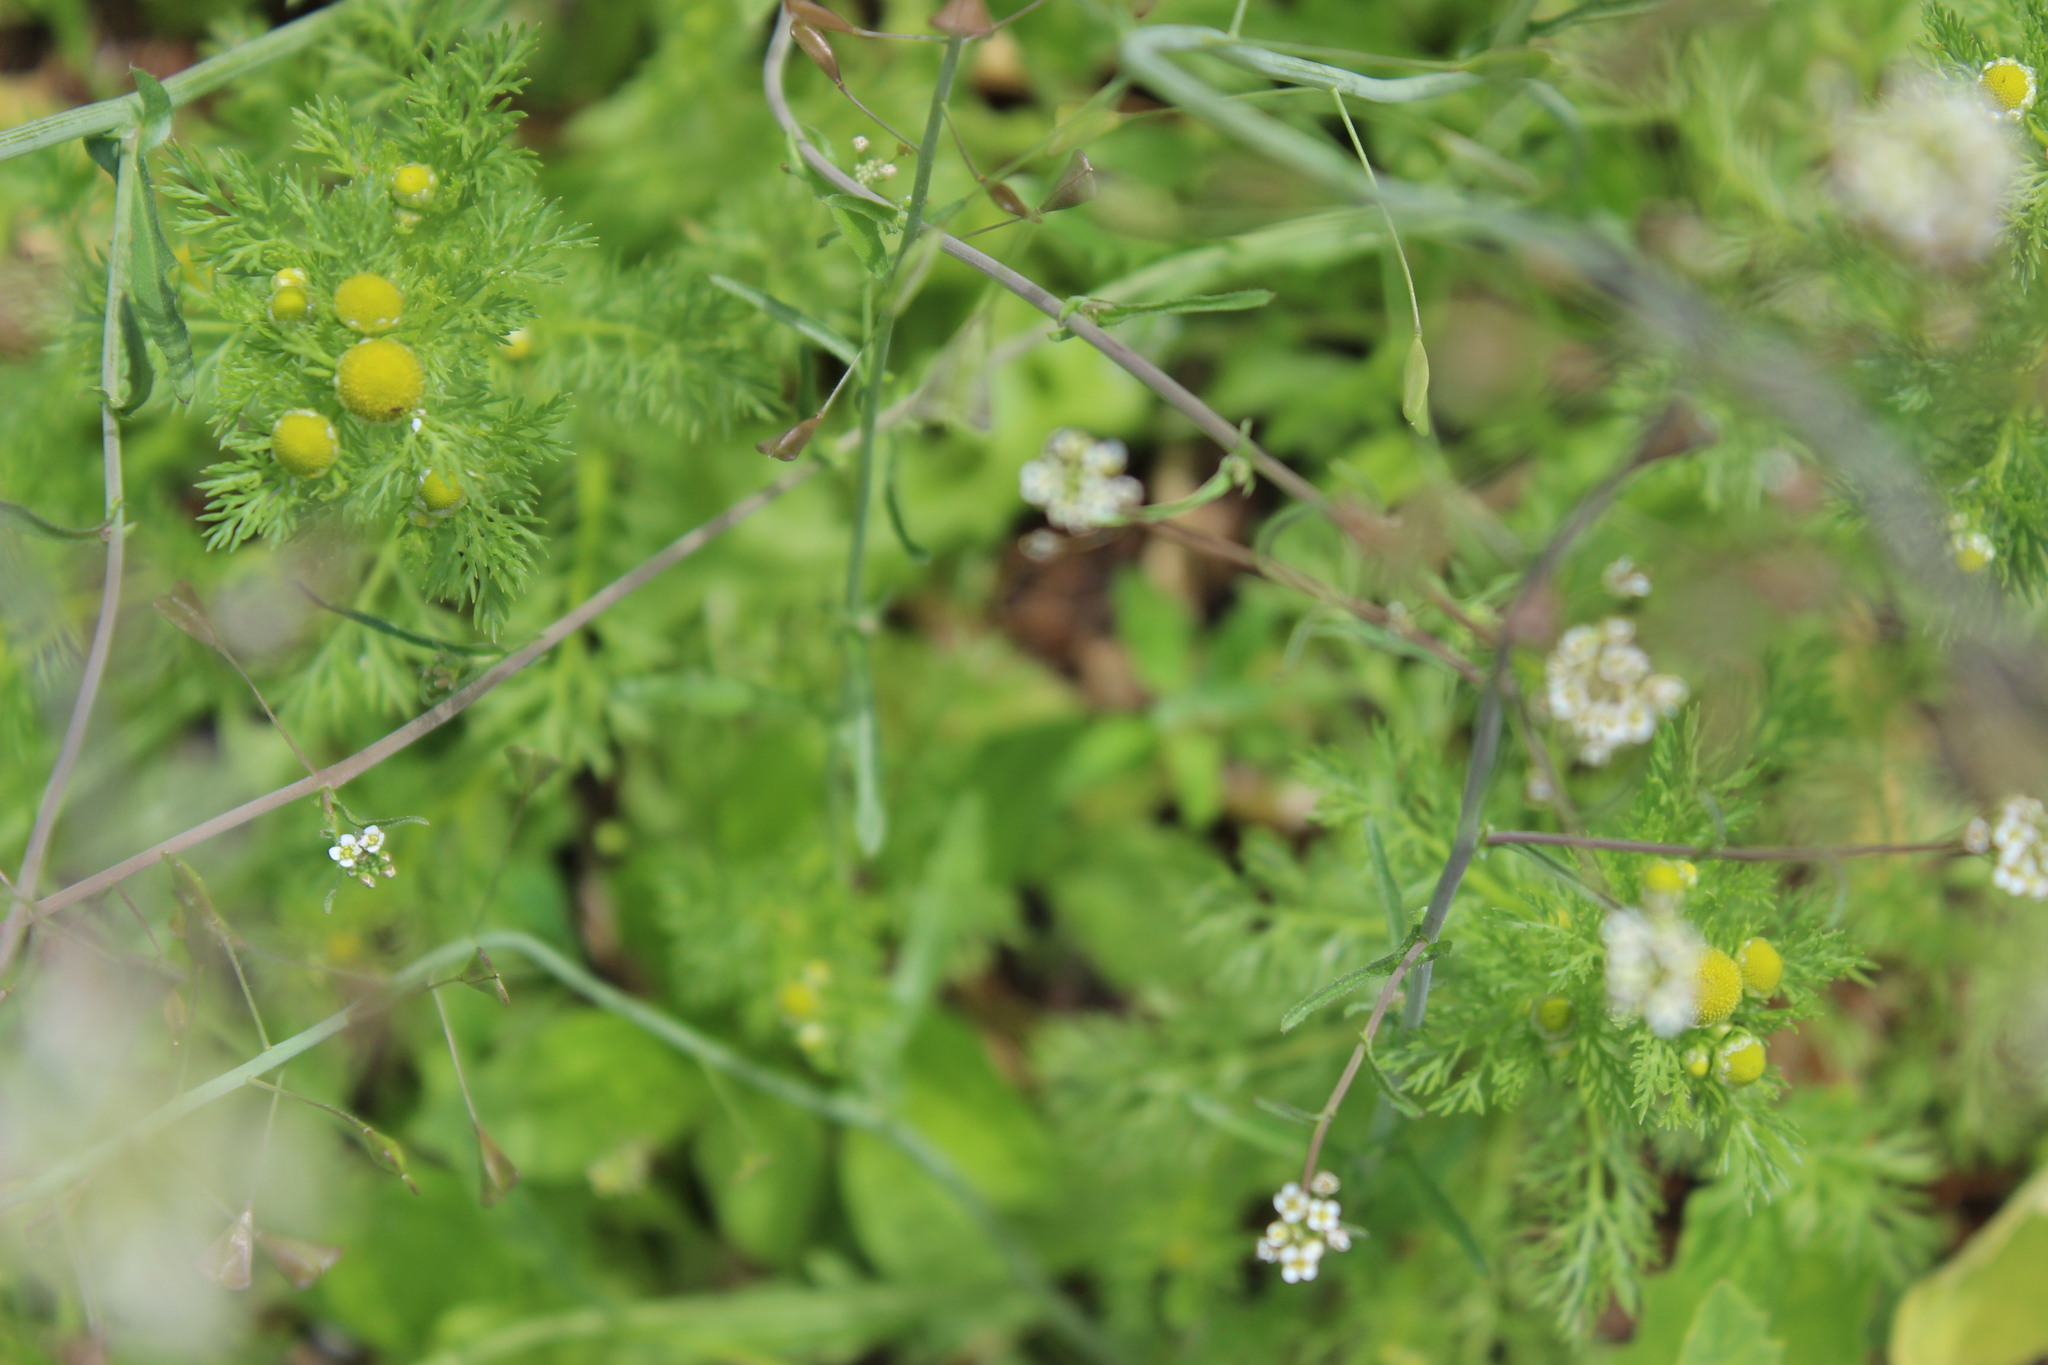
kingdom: Plantae
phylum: Tracheophyta
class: Magnoliopsida
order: Asterales
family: Asteraceae
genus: Matricaria
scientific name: Matricaria discoidea
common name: Disc mayweed
